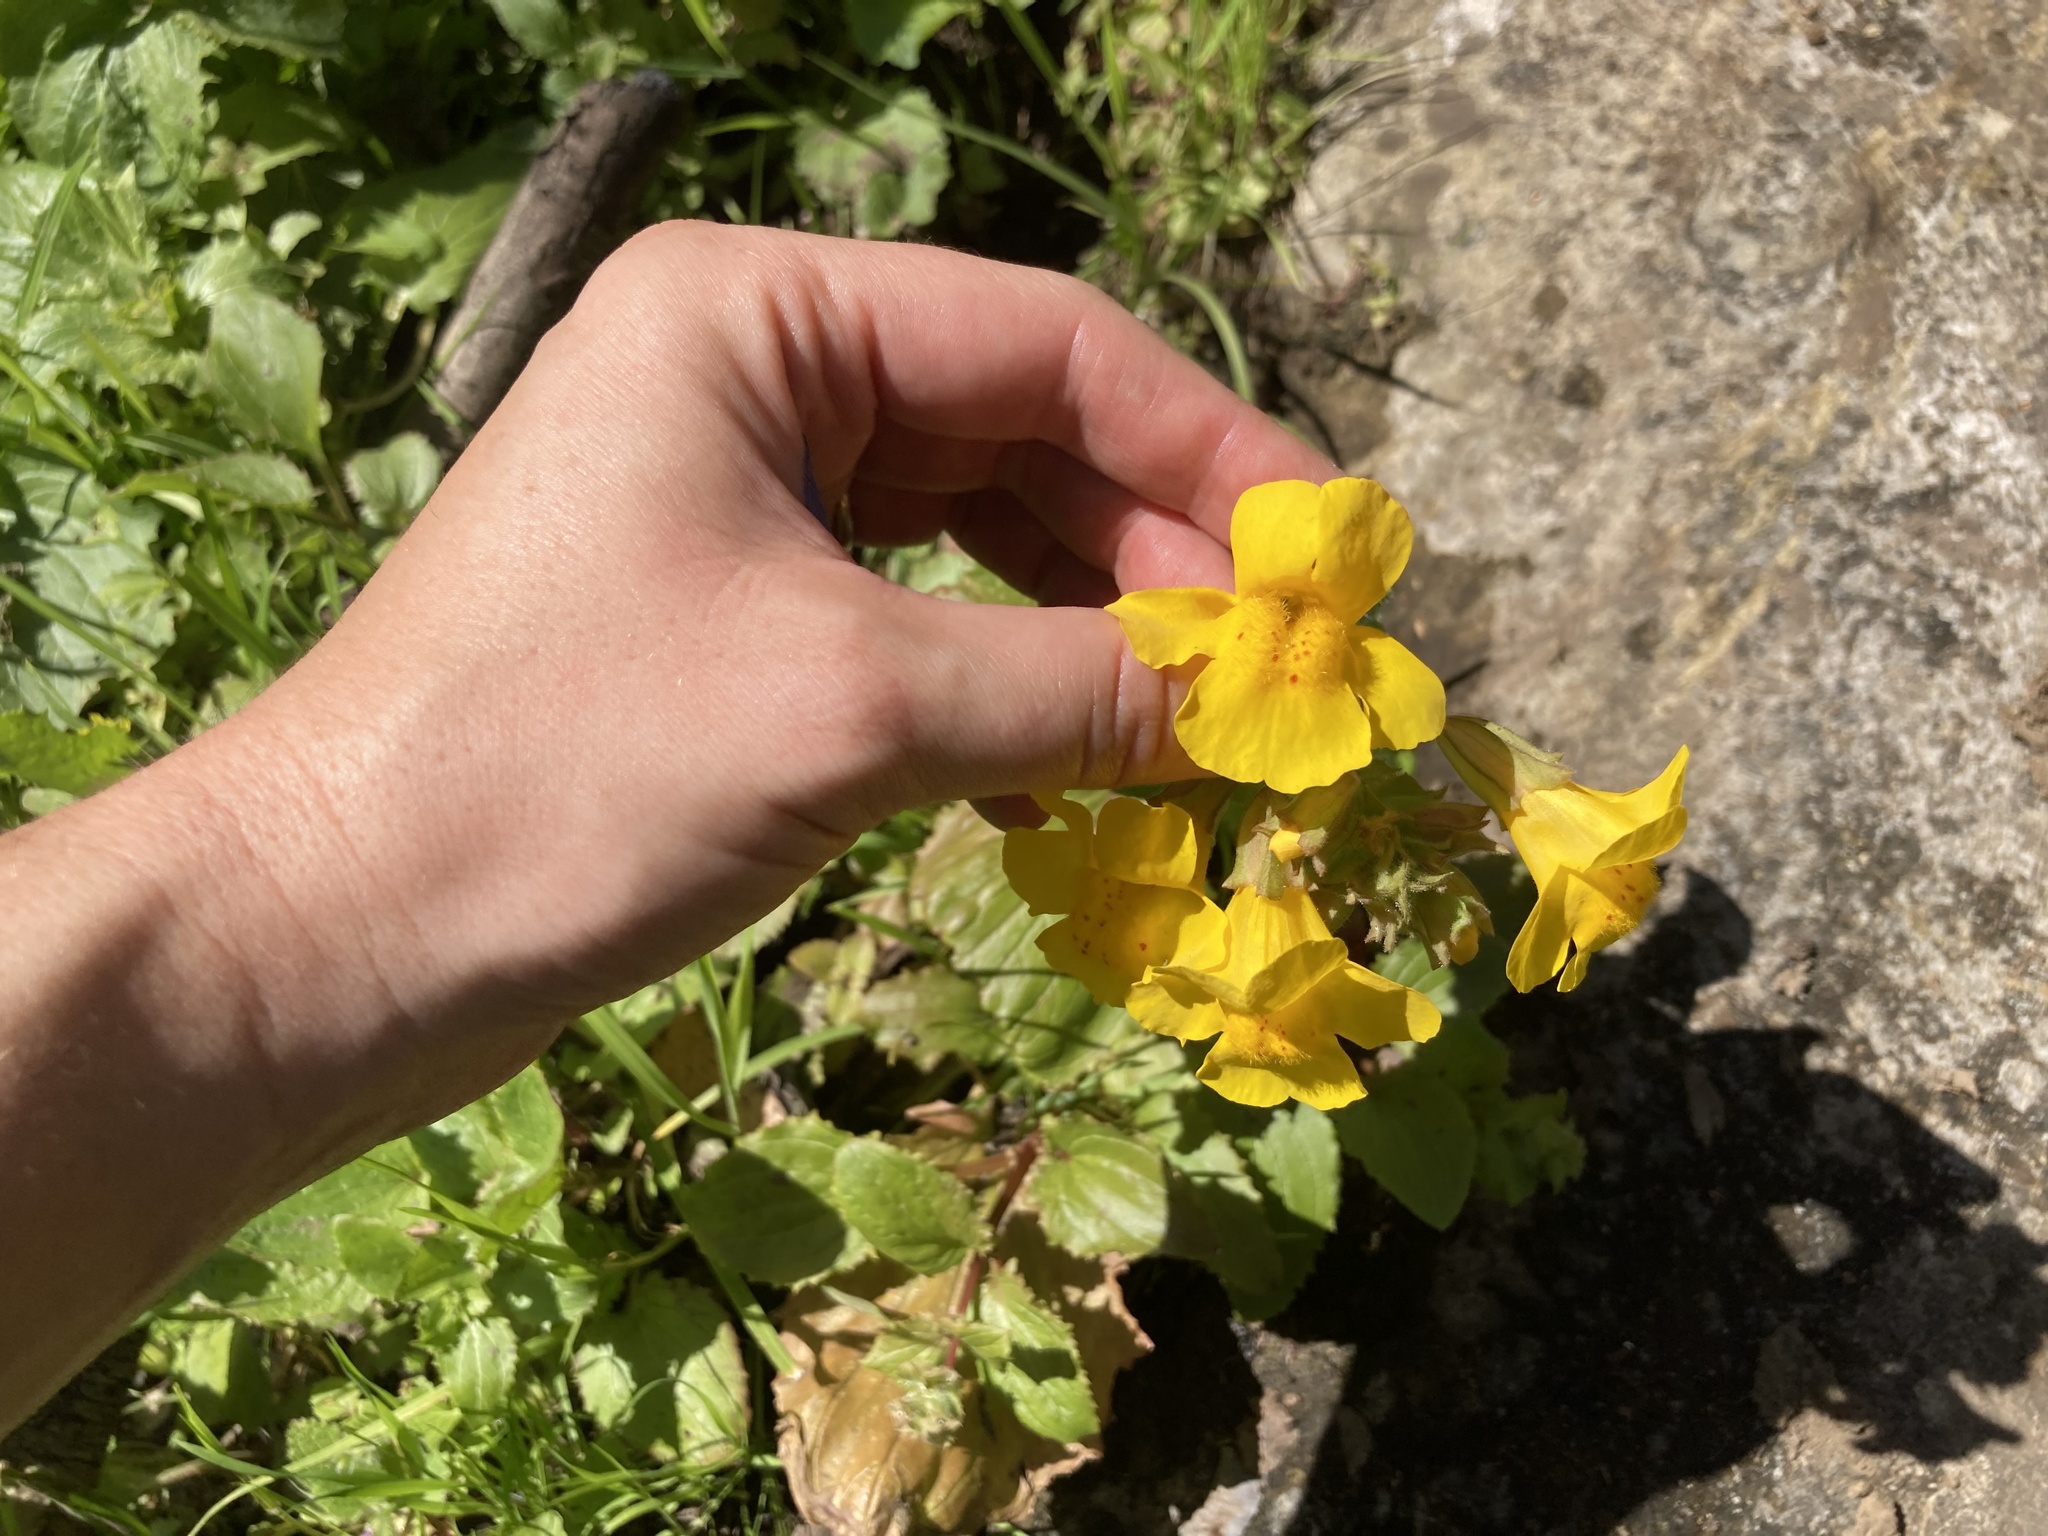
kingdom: Plantae
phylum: Tracheophyta
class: Magnoliopsida
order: Lamiales
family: Phrymaceae
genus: Erythranthe
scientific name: Erythranthe guttata
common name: Monkeyflower
